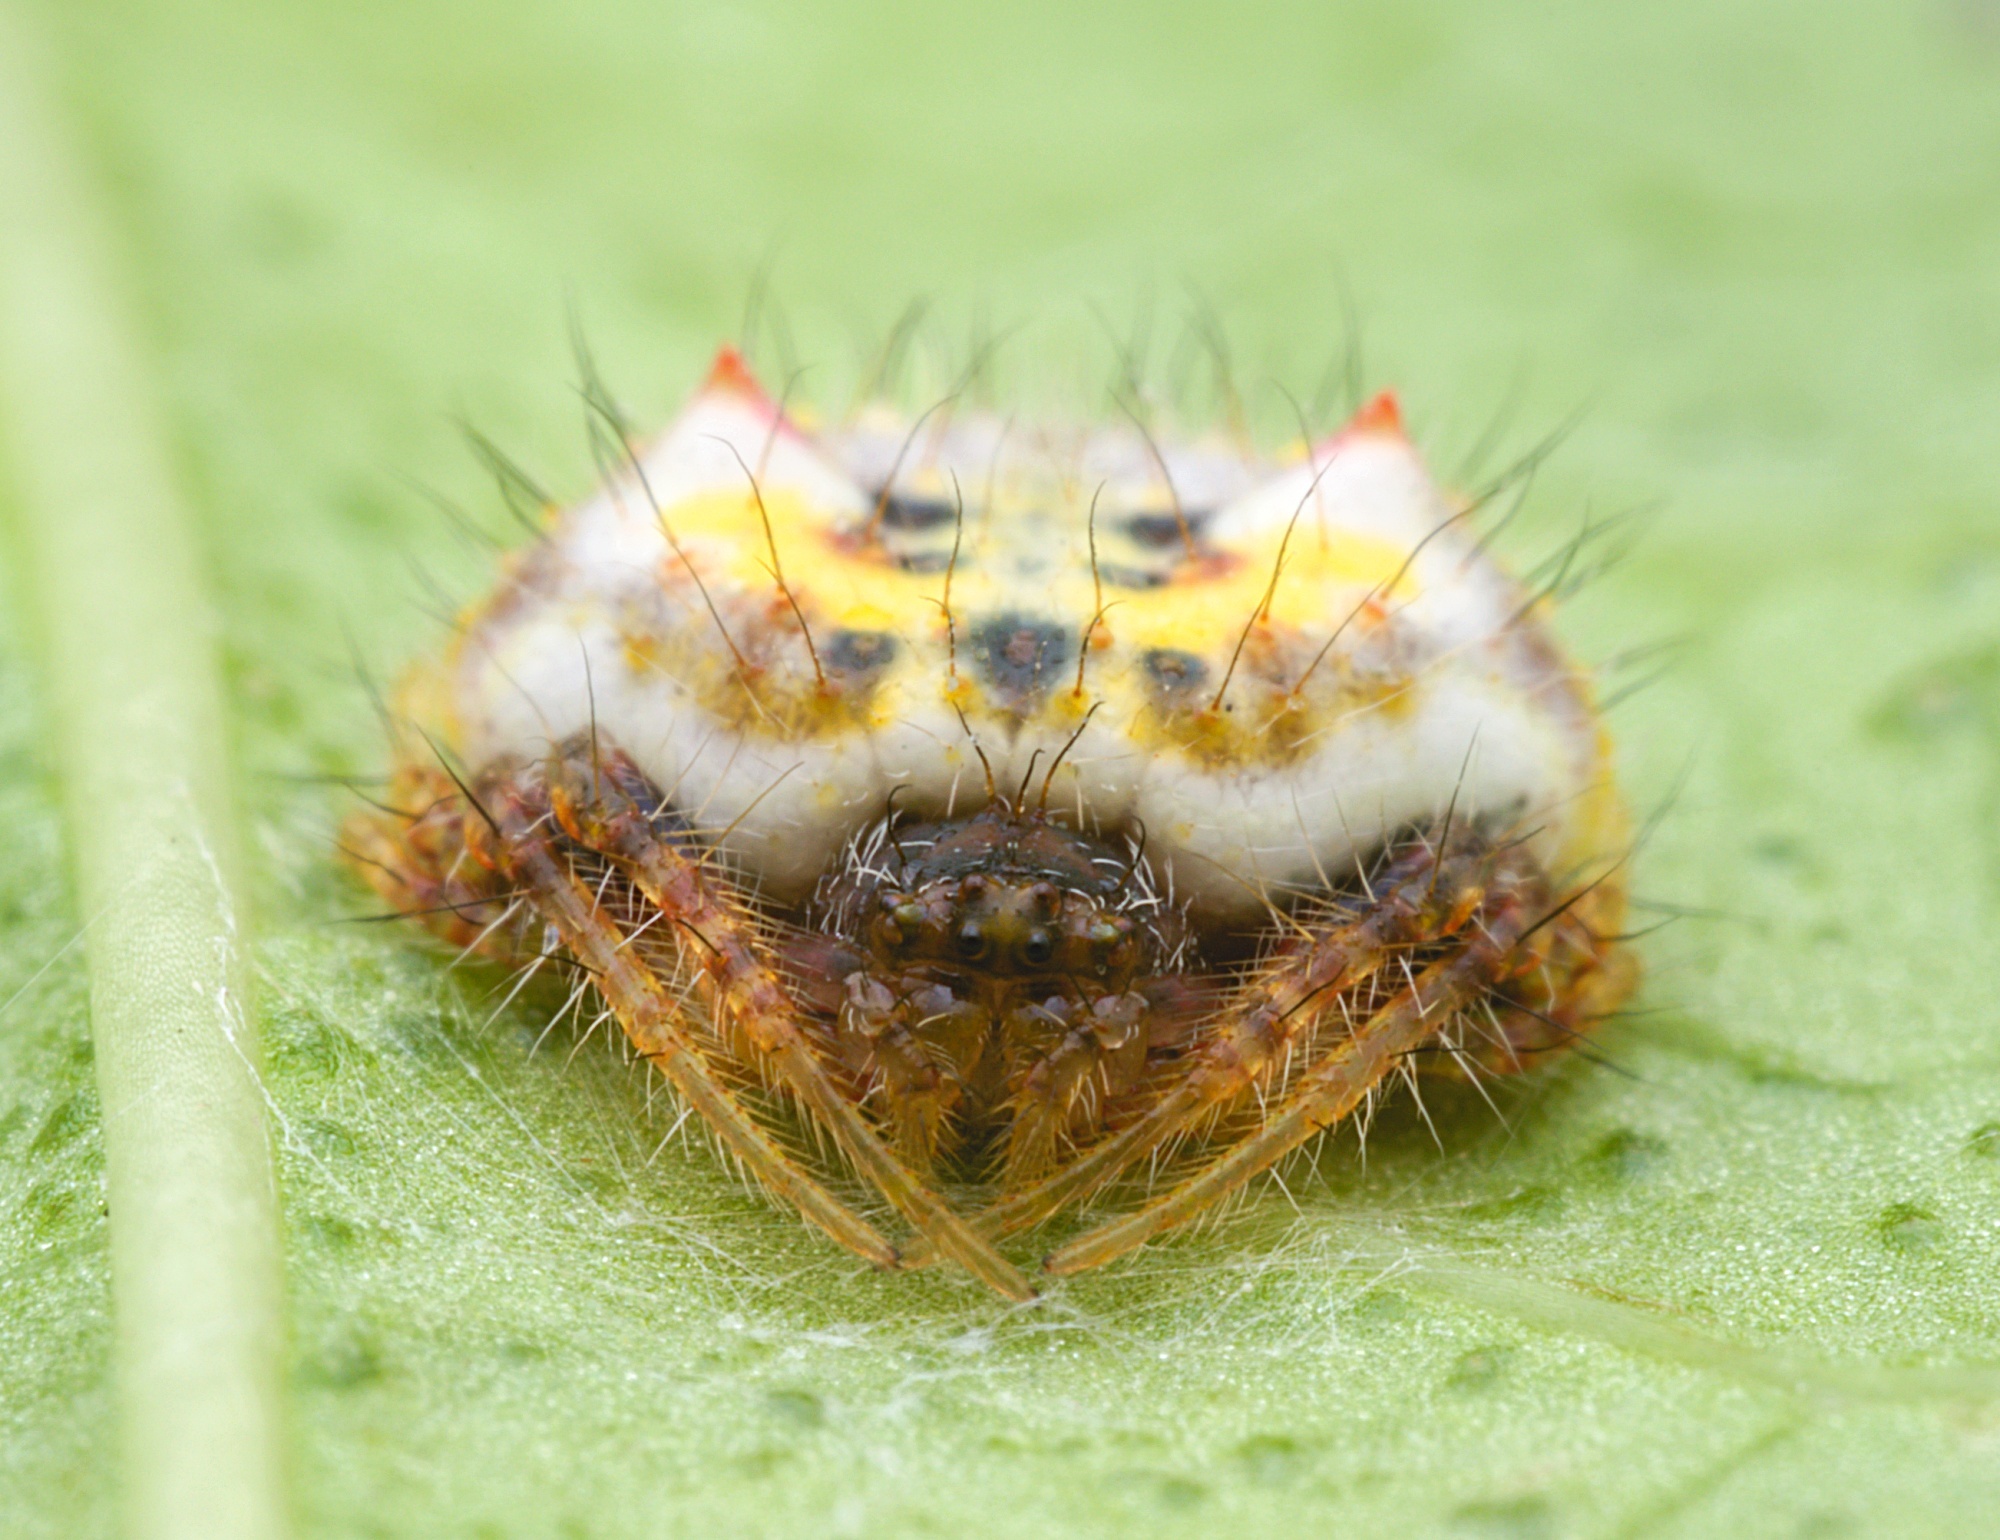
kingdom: Animalia
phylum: Arthropoda
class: Arachnida
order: Araneae
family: Araneidae
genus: Poecilopachys
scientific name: Poecilopachys australasia
